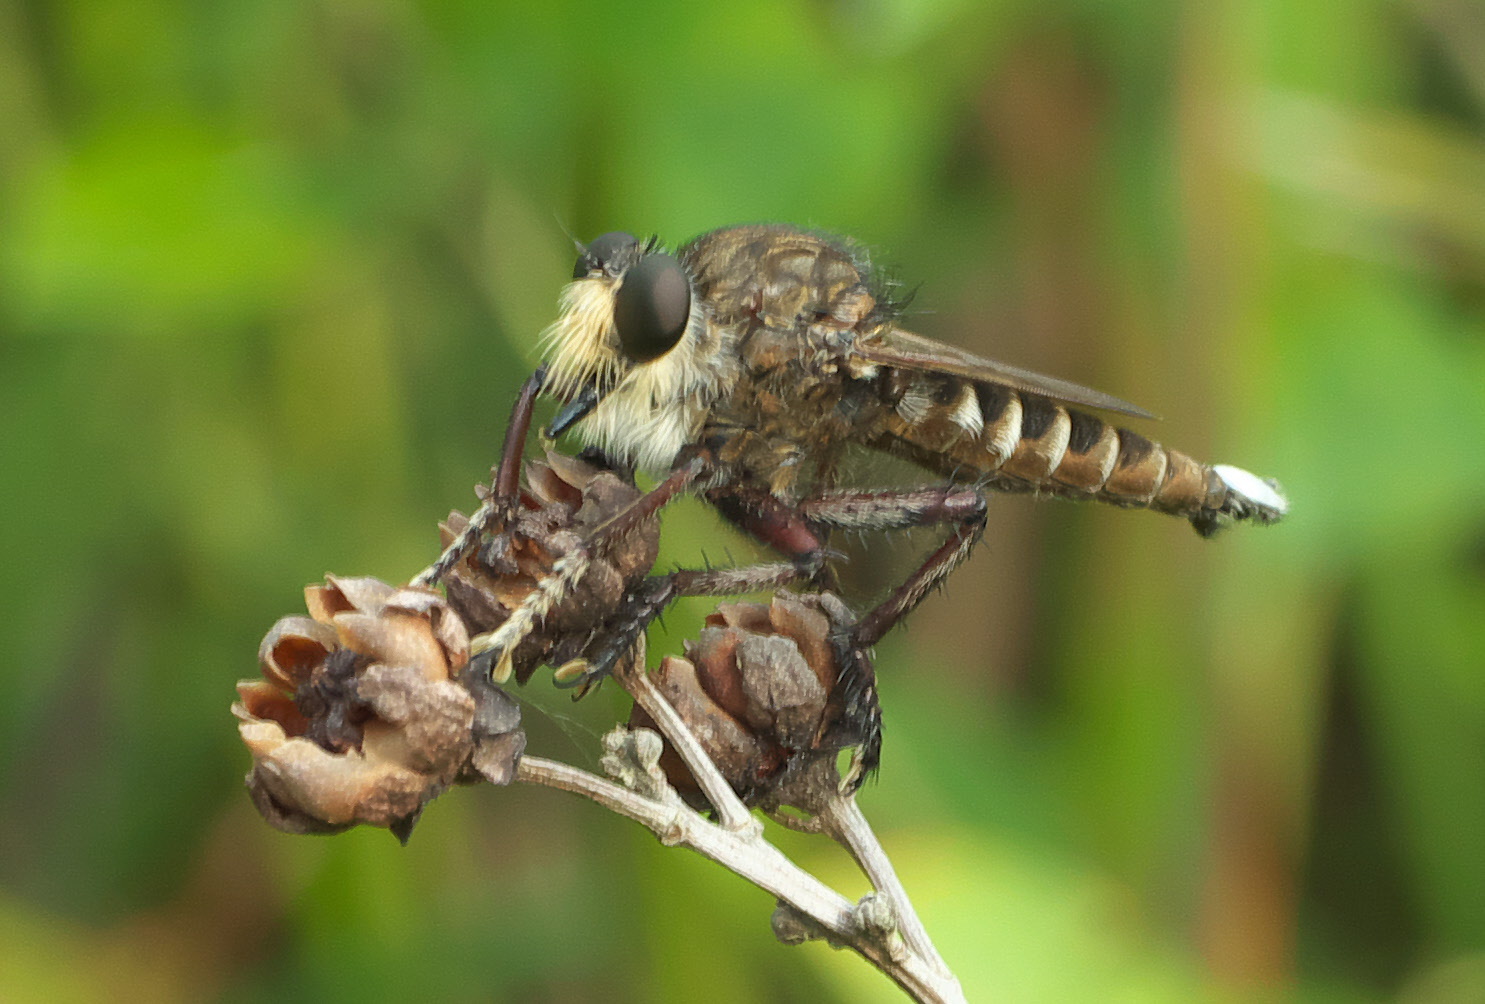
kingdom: Animalia
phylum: Arthropoda
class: Insecta
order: Diptera
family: Asilidae
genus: Promachus
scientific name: Promachus bastardii
